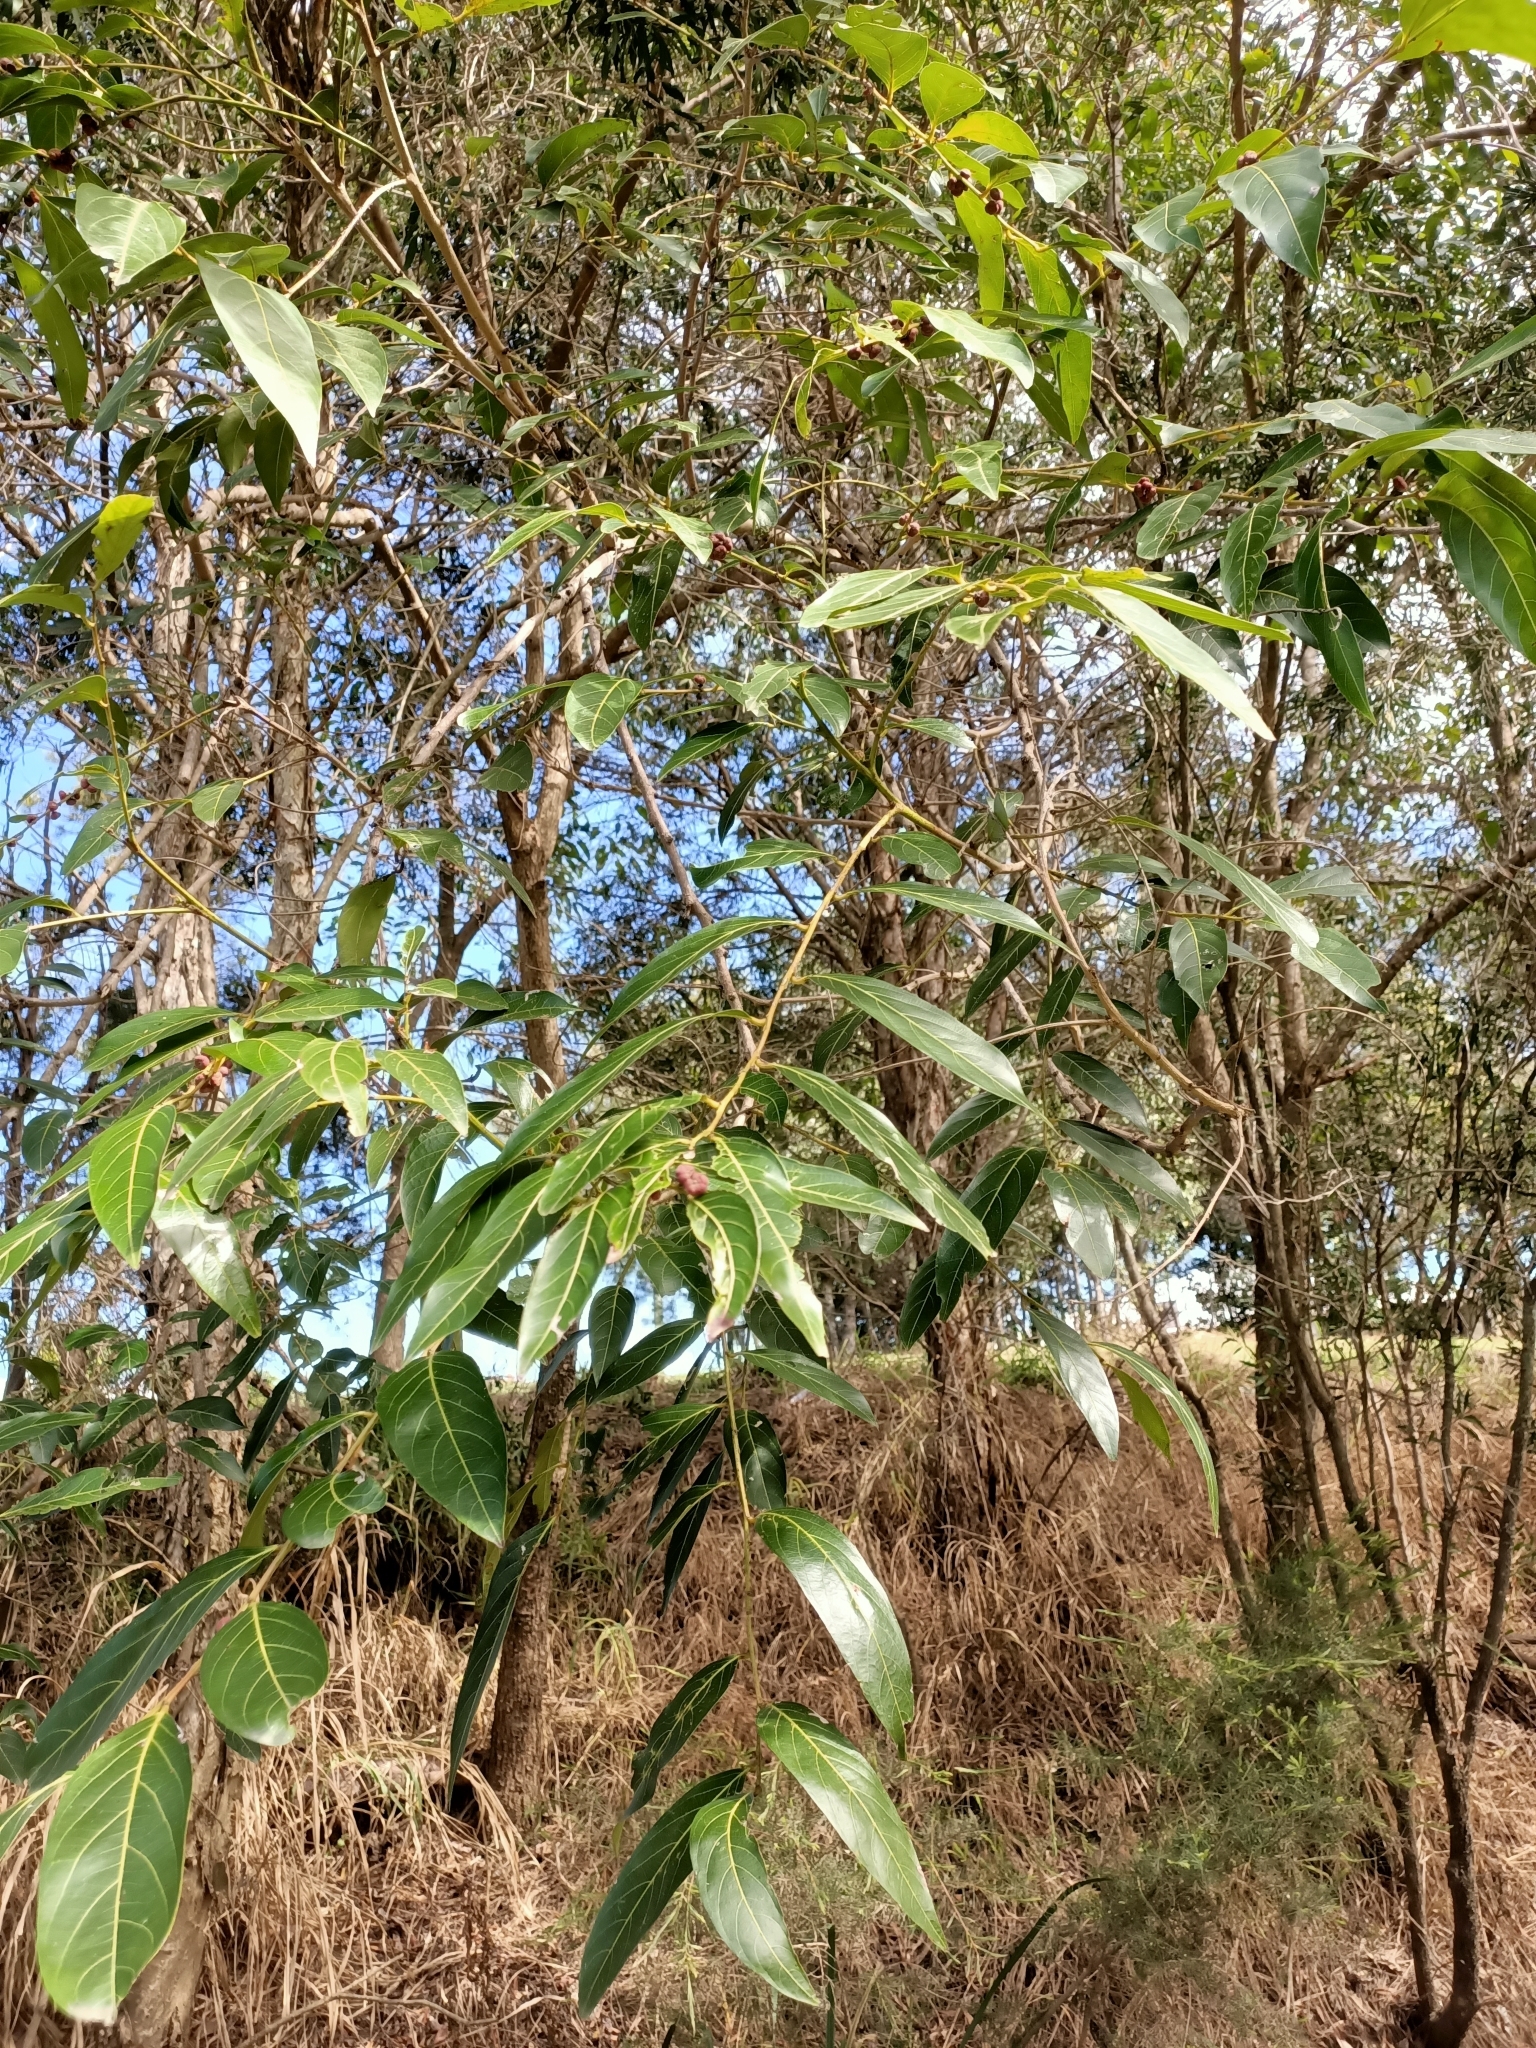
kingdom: Plantae
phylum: Tracheophyta
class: Magnoliopsida
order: Malpighiales
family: Phyllanthaceae
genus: Glochidion
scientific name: Glochidion zeylanicum
